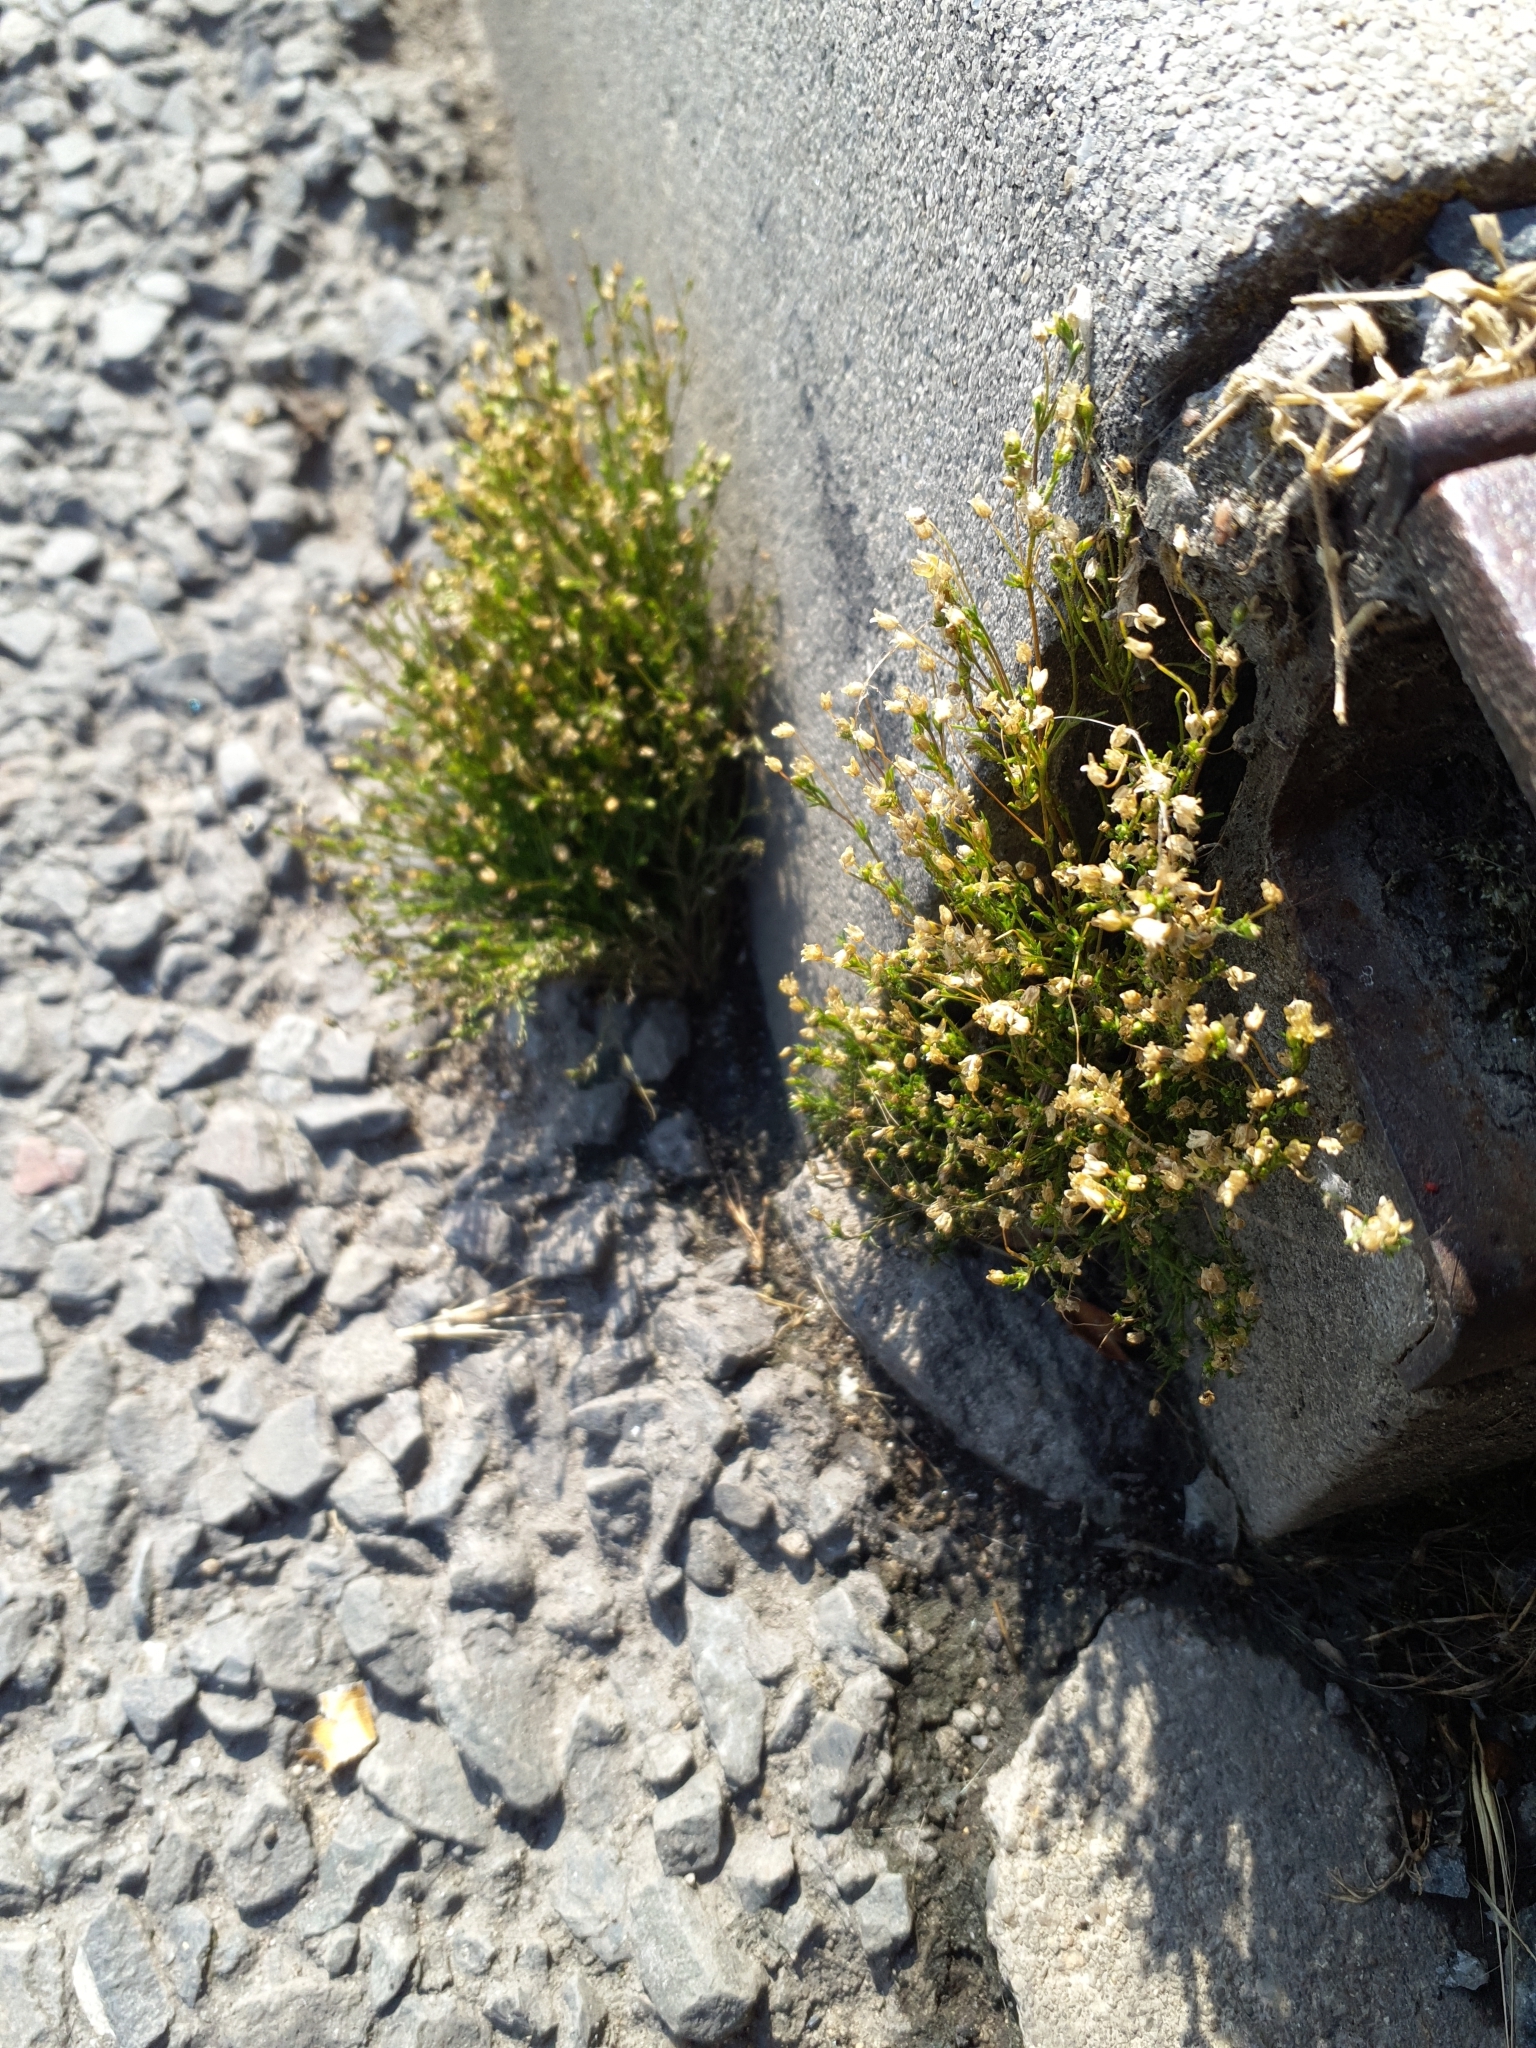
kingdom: Plantae
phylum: Tracheophyta
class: Magnoliopsida
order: Caryophyllales
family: Caryophyllaceae
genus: Sagina
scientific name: Sagina apetala
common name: Annual pearlwort
